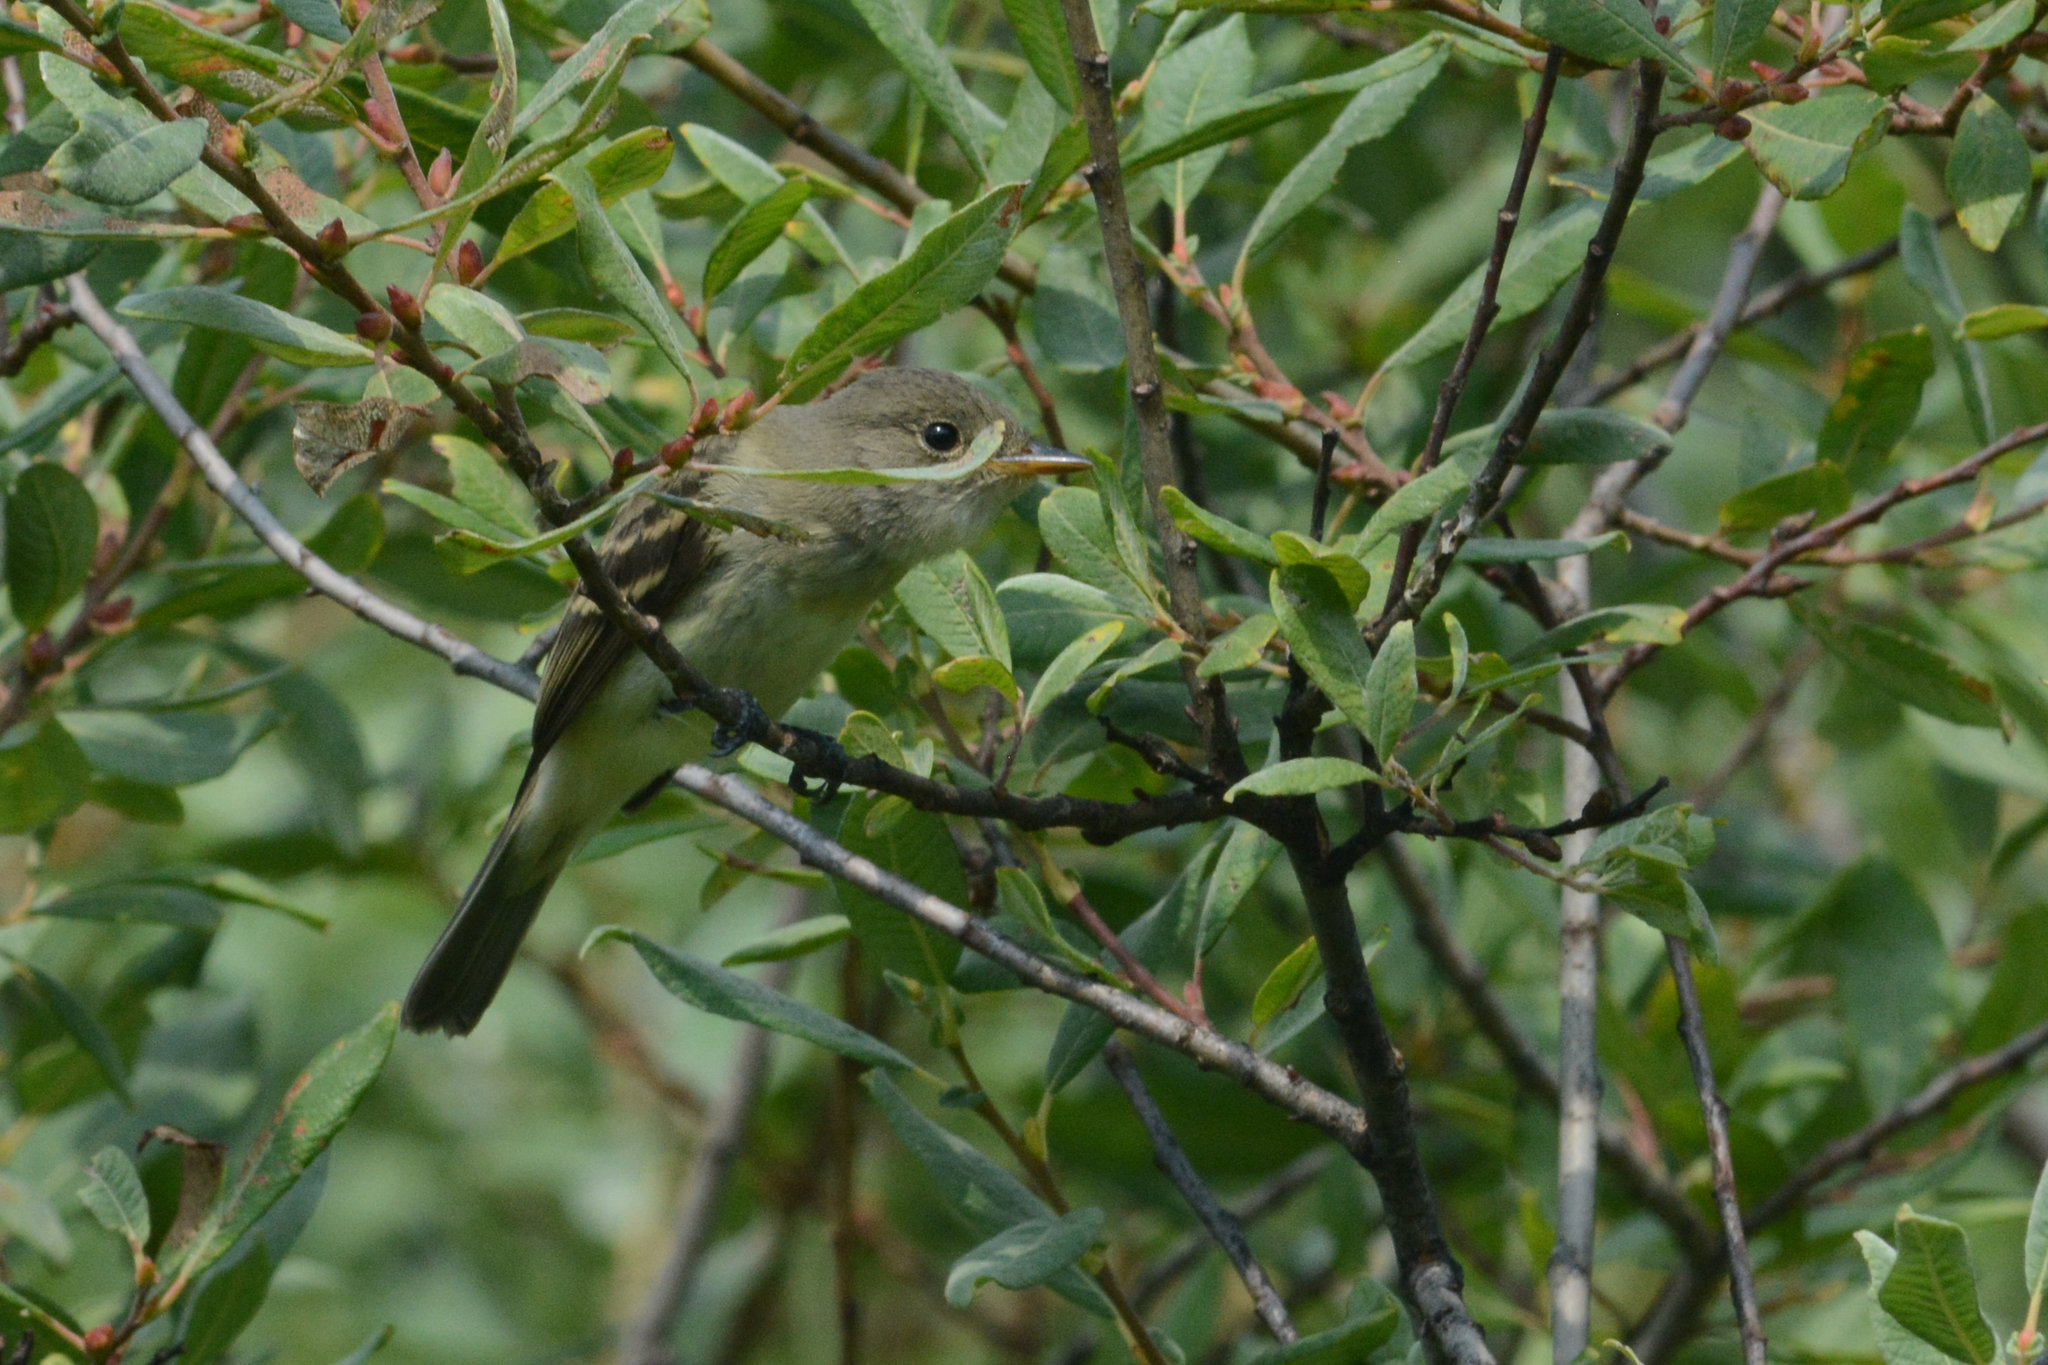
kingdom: Animalia
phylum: Chordata
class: Aves
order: Passeriformes
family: Tyrannidae
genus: Empidonax
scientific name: Empidonax traillii
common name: Willow flycatcher
